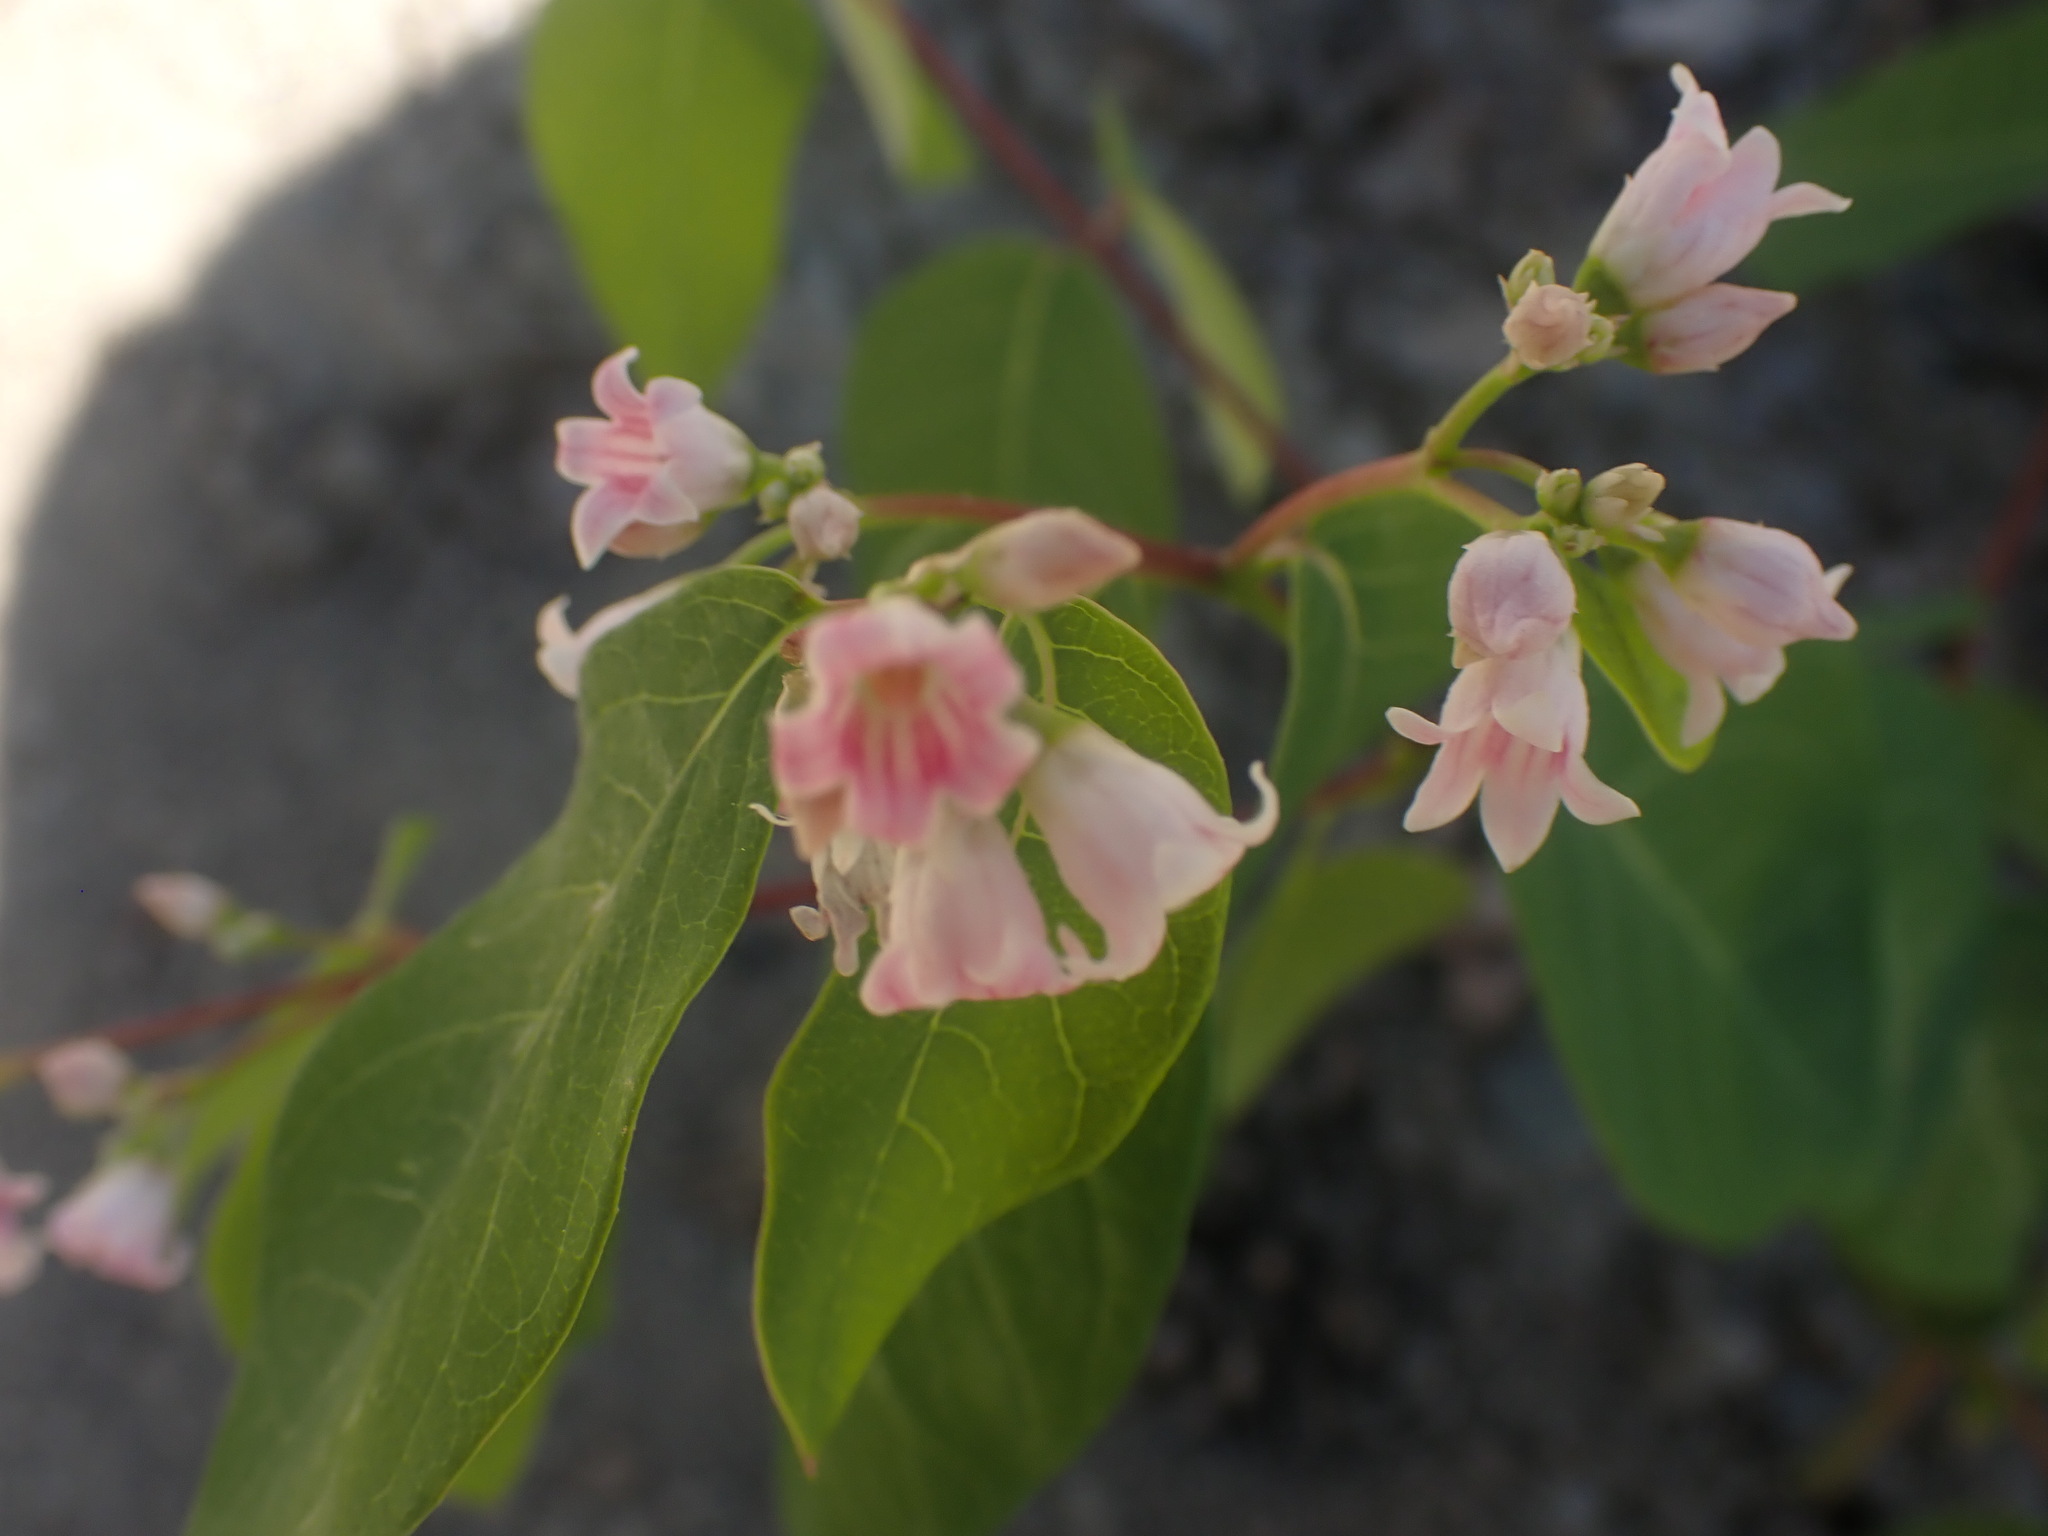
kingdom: Plantae
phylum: Tracheophyta
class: Magnoliopsida
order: Gentianales
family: Apocynaceae
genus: Apocynum
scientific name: Apocynum androsaemifolium
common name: Spreading dogbane
